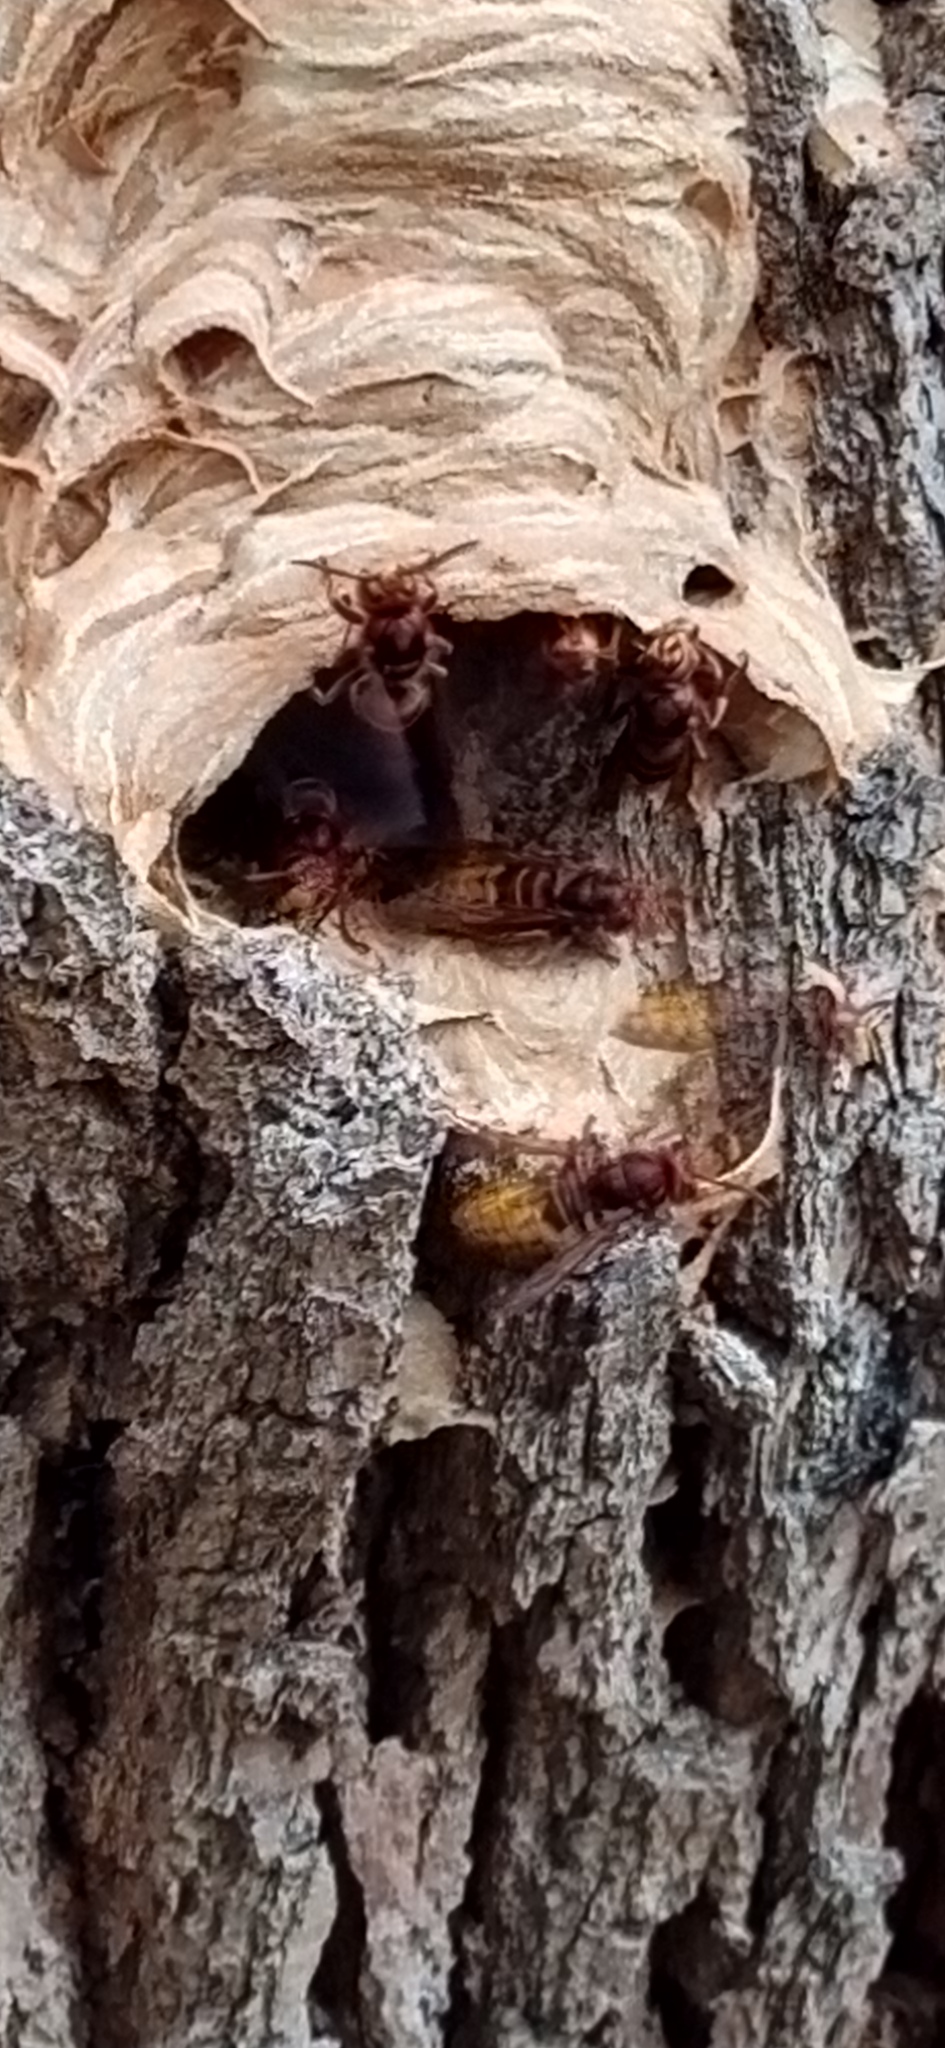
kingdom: Animalia
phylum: Arthropoda
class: Insecta
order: Hymenoptera
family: Vespidae
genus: Vespa
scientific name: Vespa crabro
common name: Hornet
